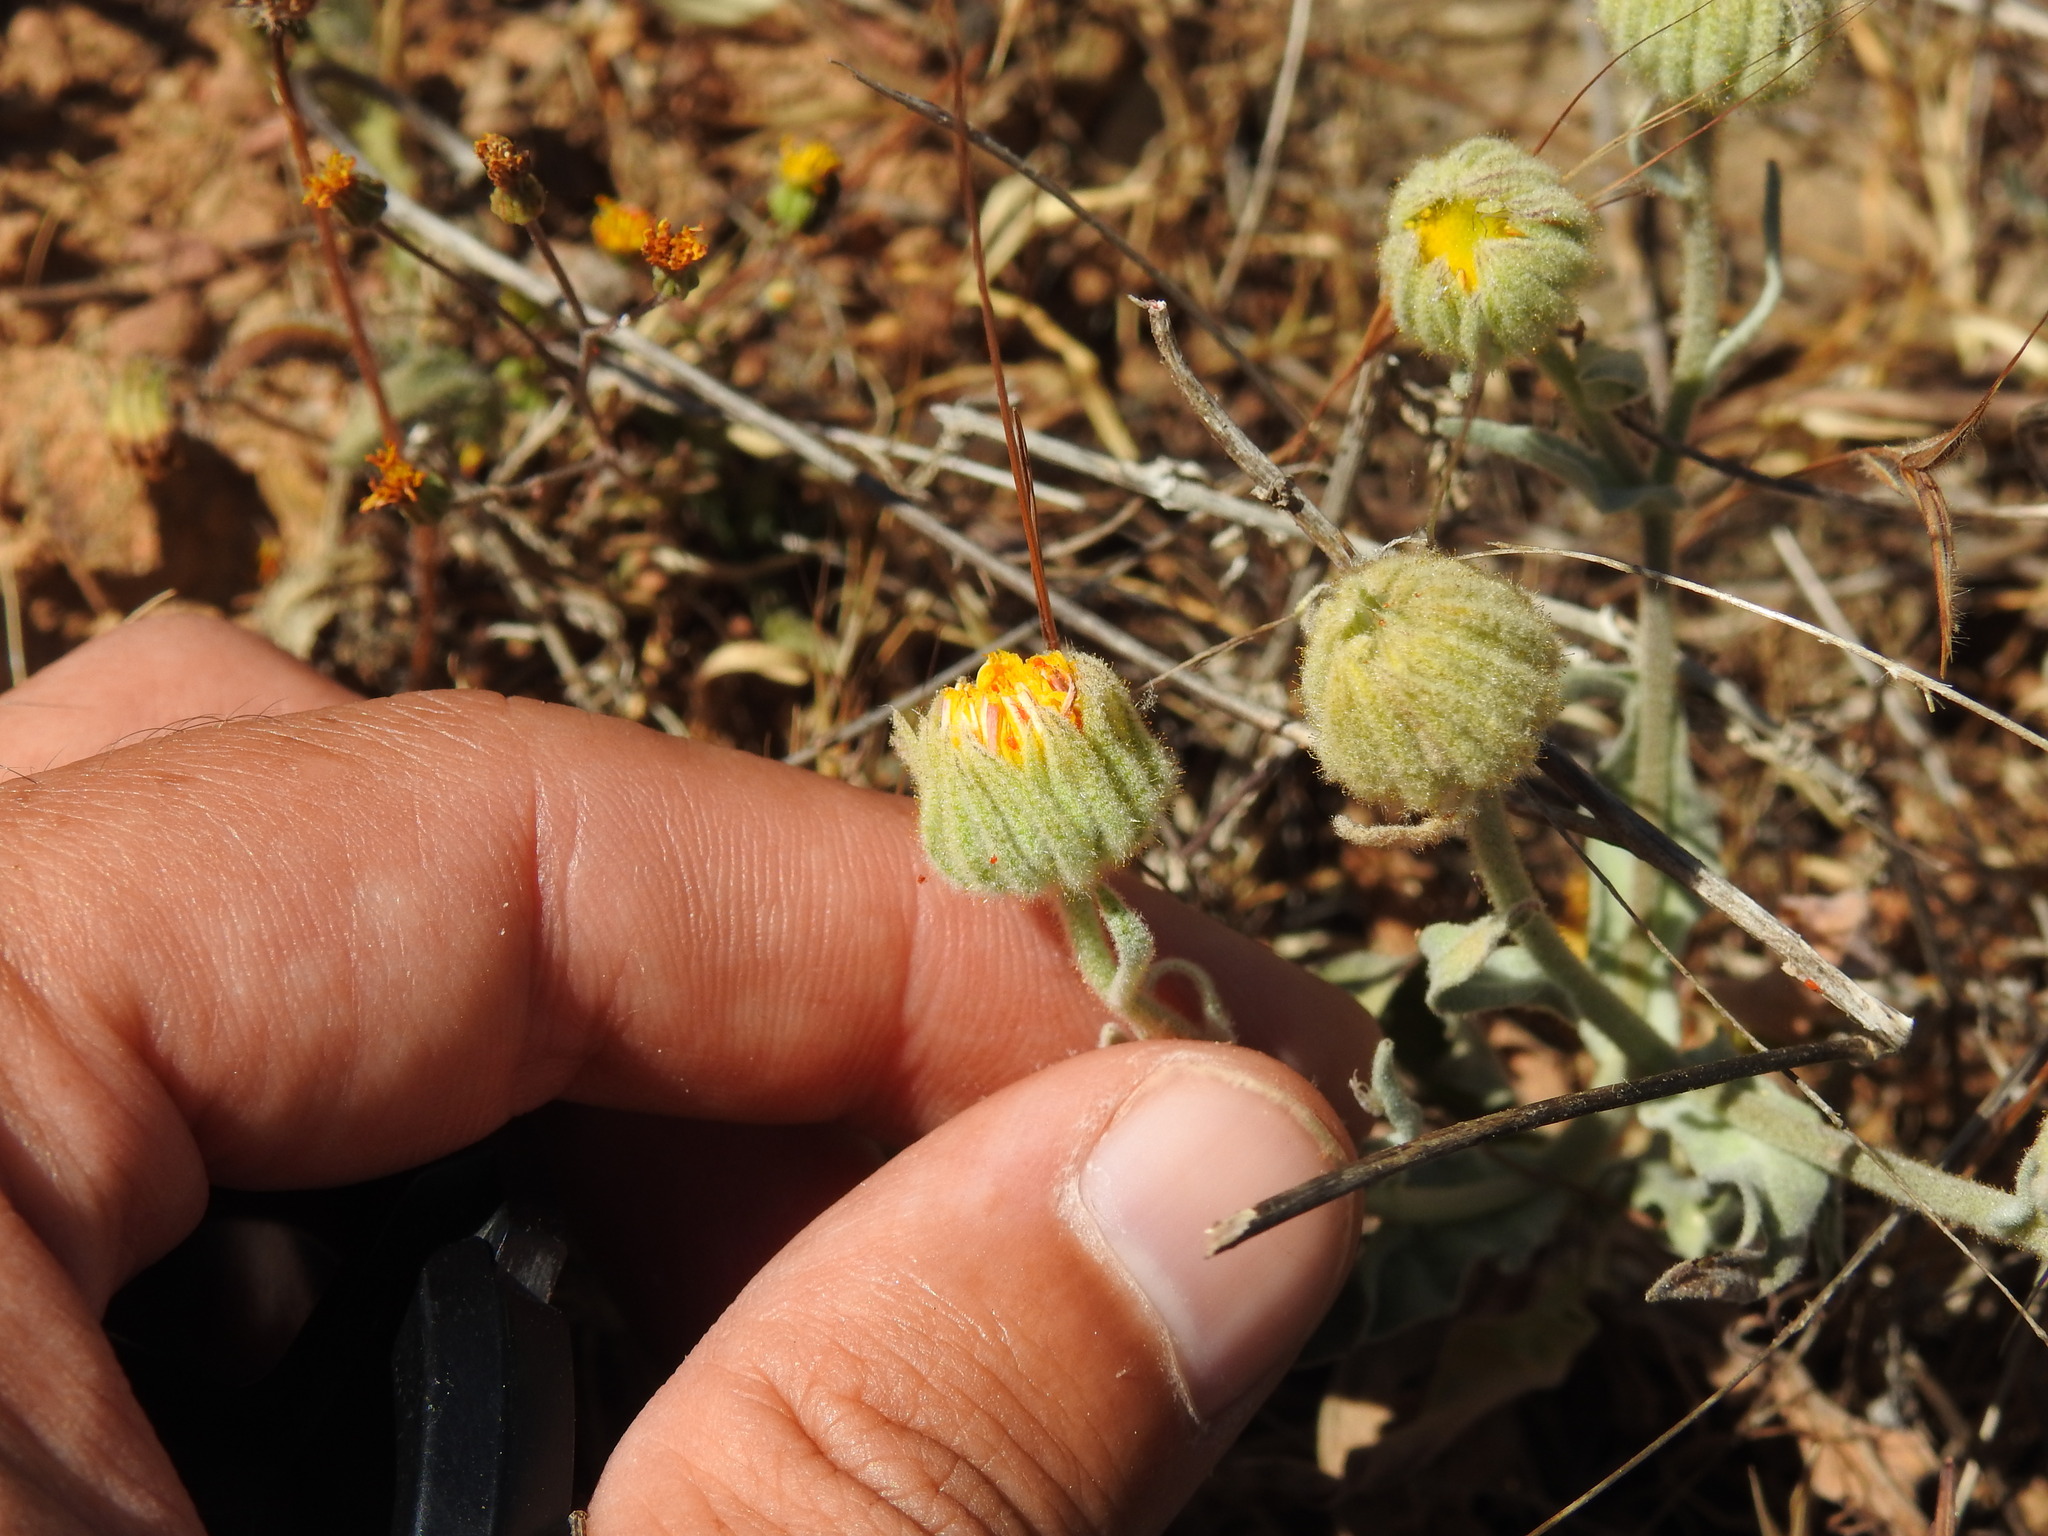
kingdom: Plantae
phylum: Tracheophyta
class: Magnoliopsida
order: Asterales
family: Asteraceae
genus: Andryala
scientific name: Andryala rothia
